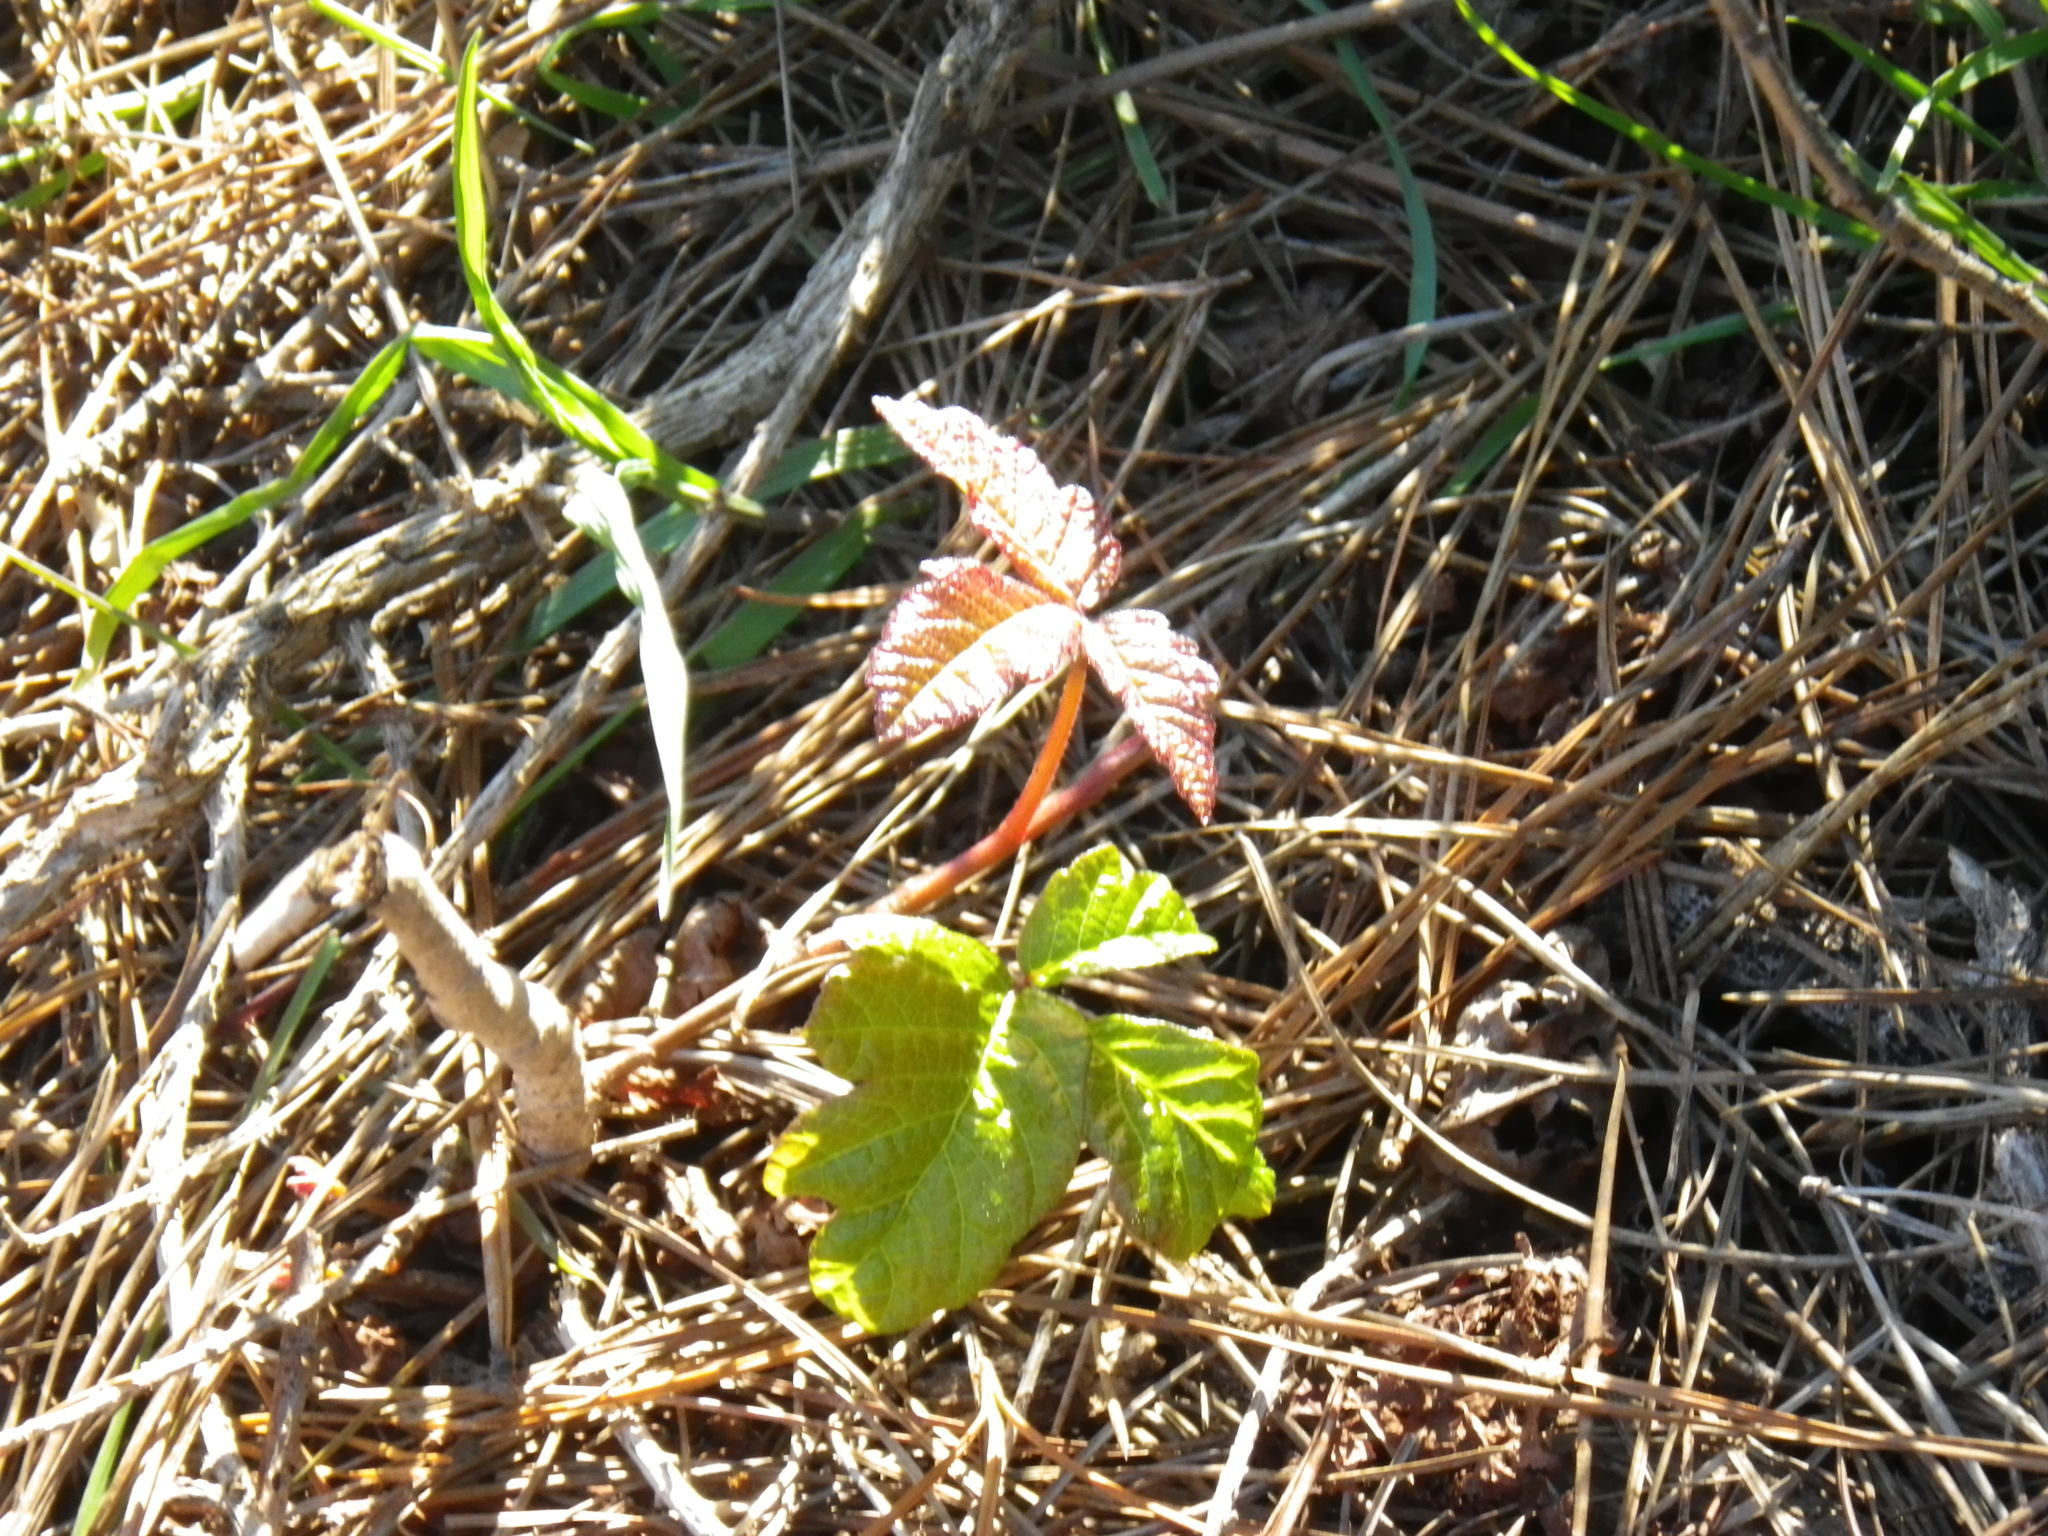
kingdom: Plantae
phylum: Tracheophyta
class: Magnoliopsida
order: Sapindales
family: Anacardiaceae
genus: Toxicodendron
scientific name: Toxicodendron diversilobum
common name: Pacific poison-oak
